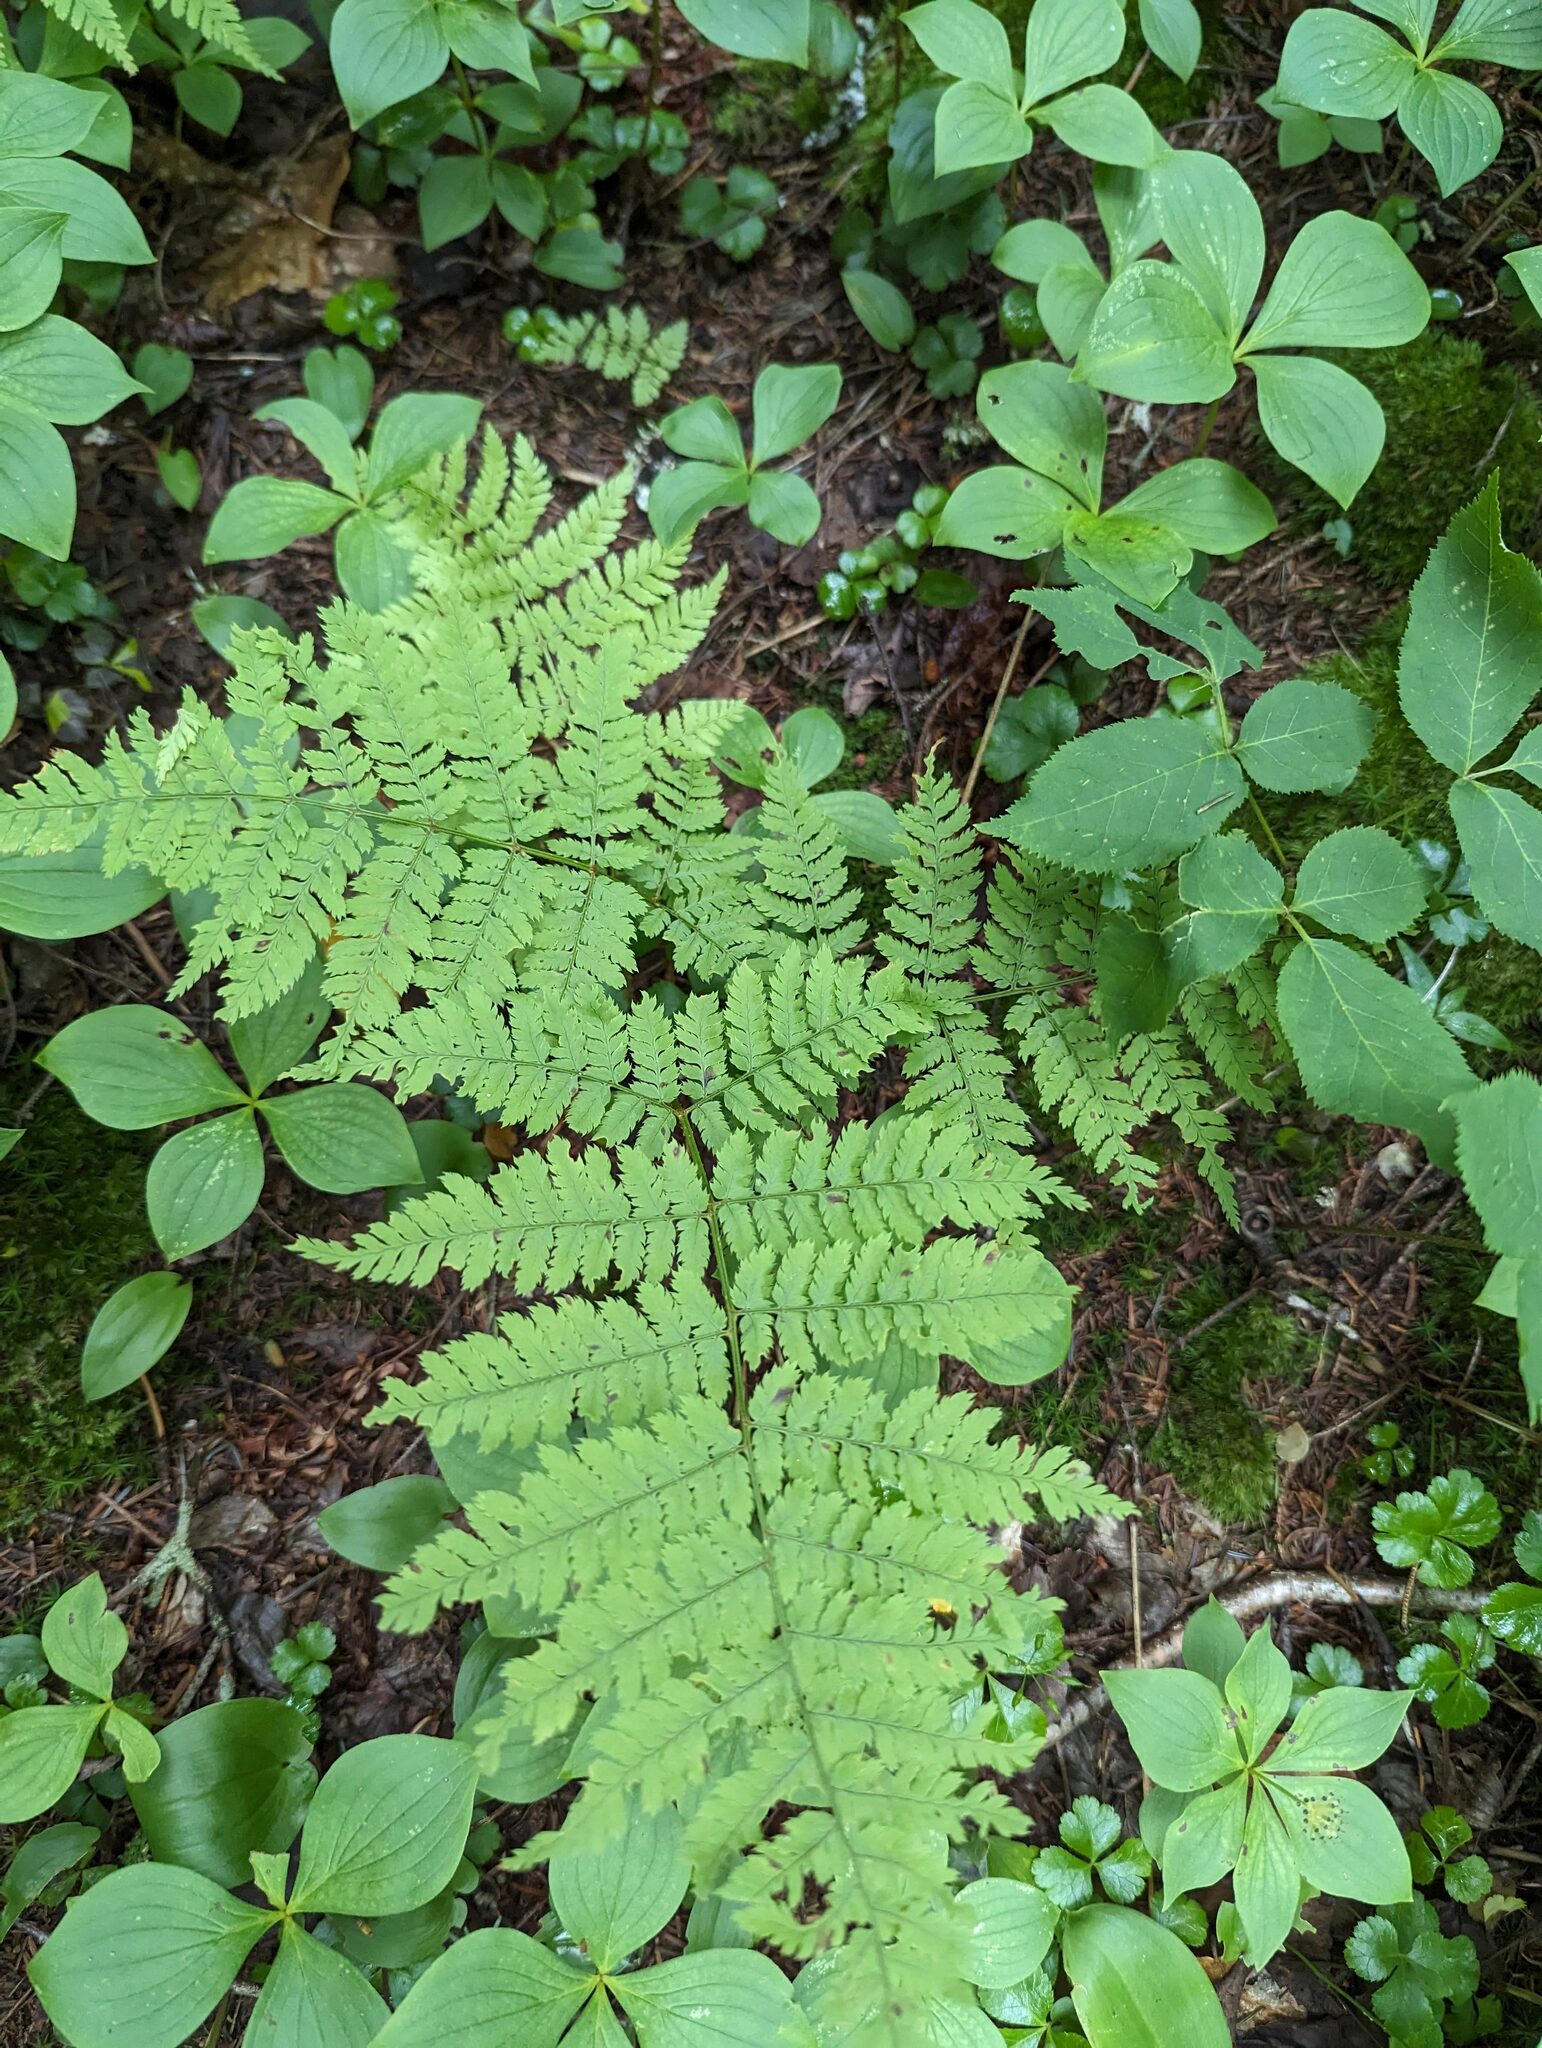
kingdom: Plantae
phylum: Tracheophyta
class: Polypodiopsida
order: Polypodiales
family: Dryopteridaceae
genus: Dryopteris
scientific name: Dryopteris intermedia
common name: Evergreen wood fern
